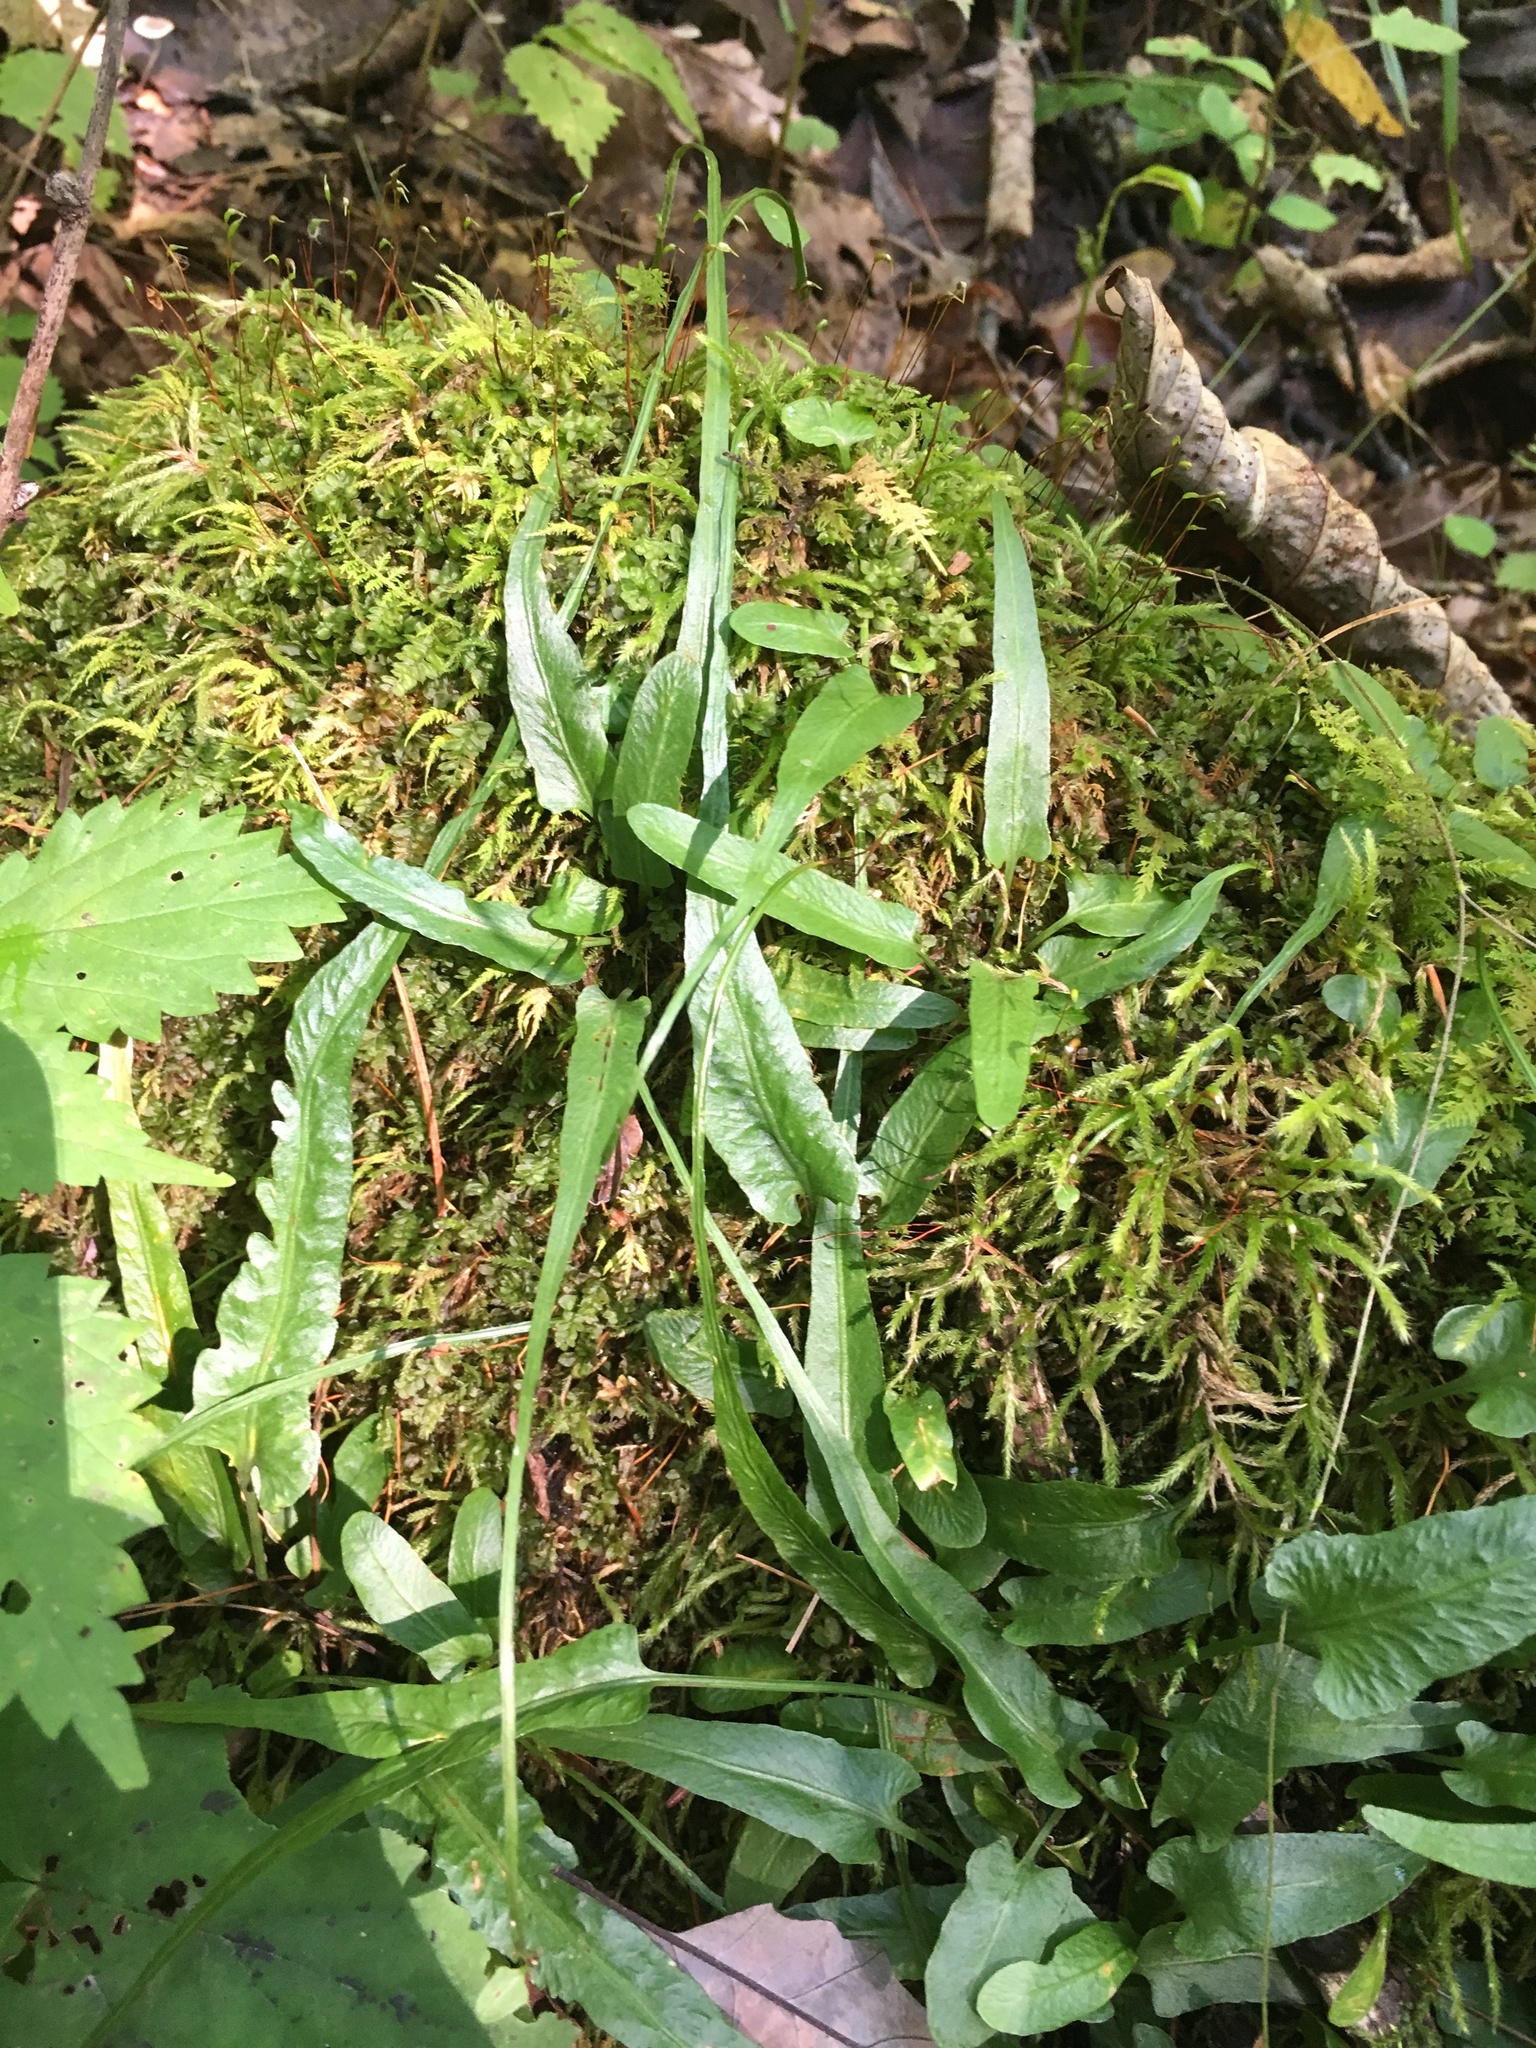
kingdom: Plantae
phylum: Tracheophyta
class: Polypodiopsida
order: Polypodiales
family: Aspleniaceae
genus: Asplenium
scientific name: Asplenium rhizophyllum
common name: Walking fern
